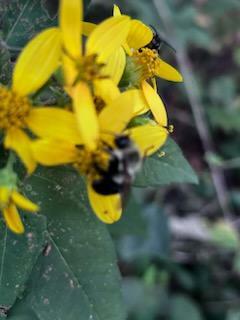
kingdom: Animalia
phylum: Arthropoda
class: Insecta
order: Hymenoptera
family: Apidae
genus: Bombus
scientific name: Bombus impatiens
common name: Common eastern bumble bee
